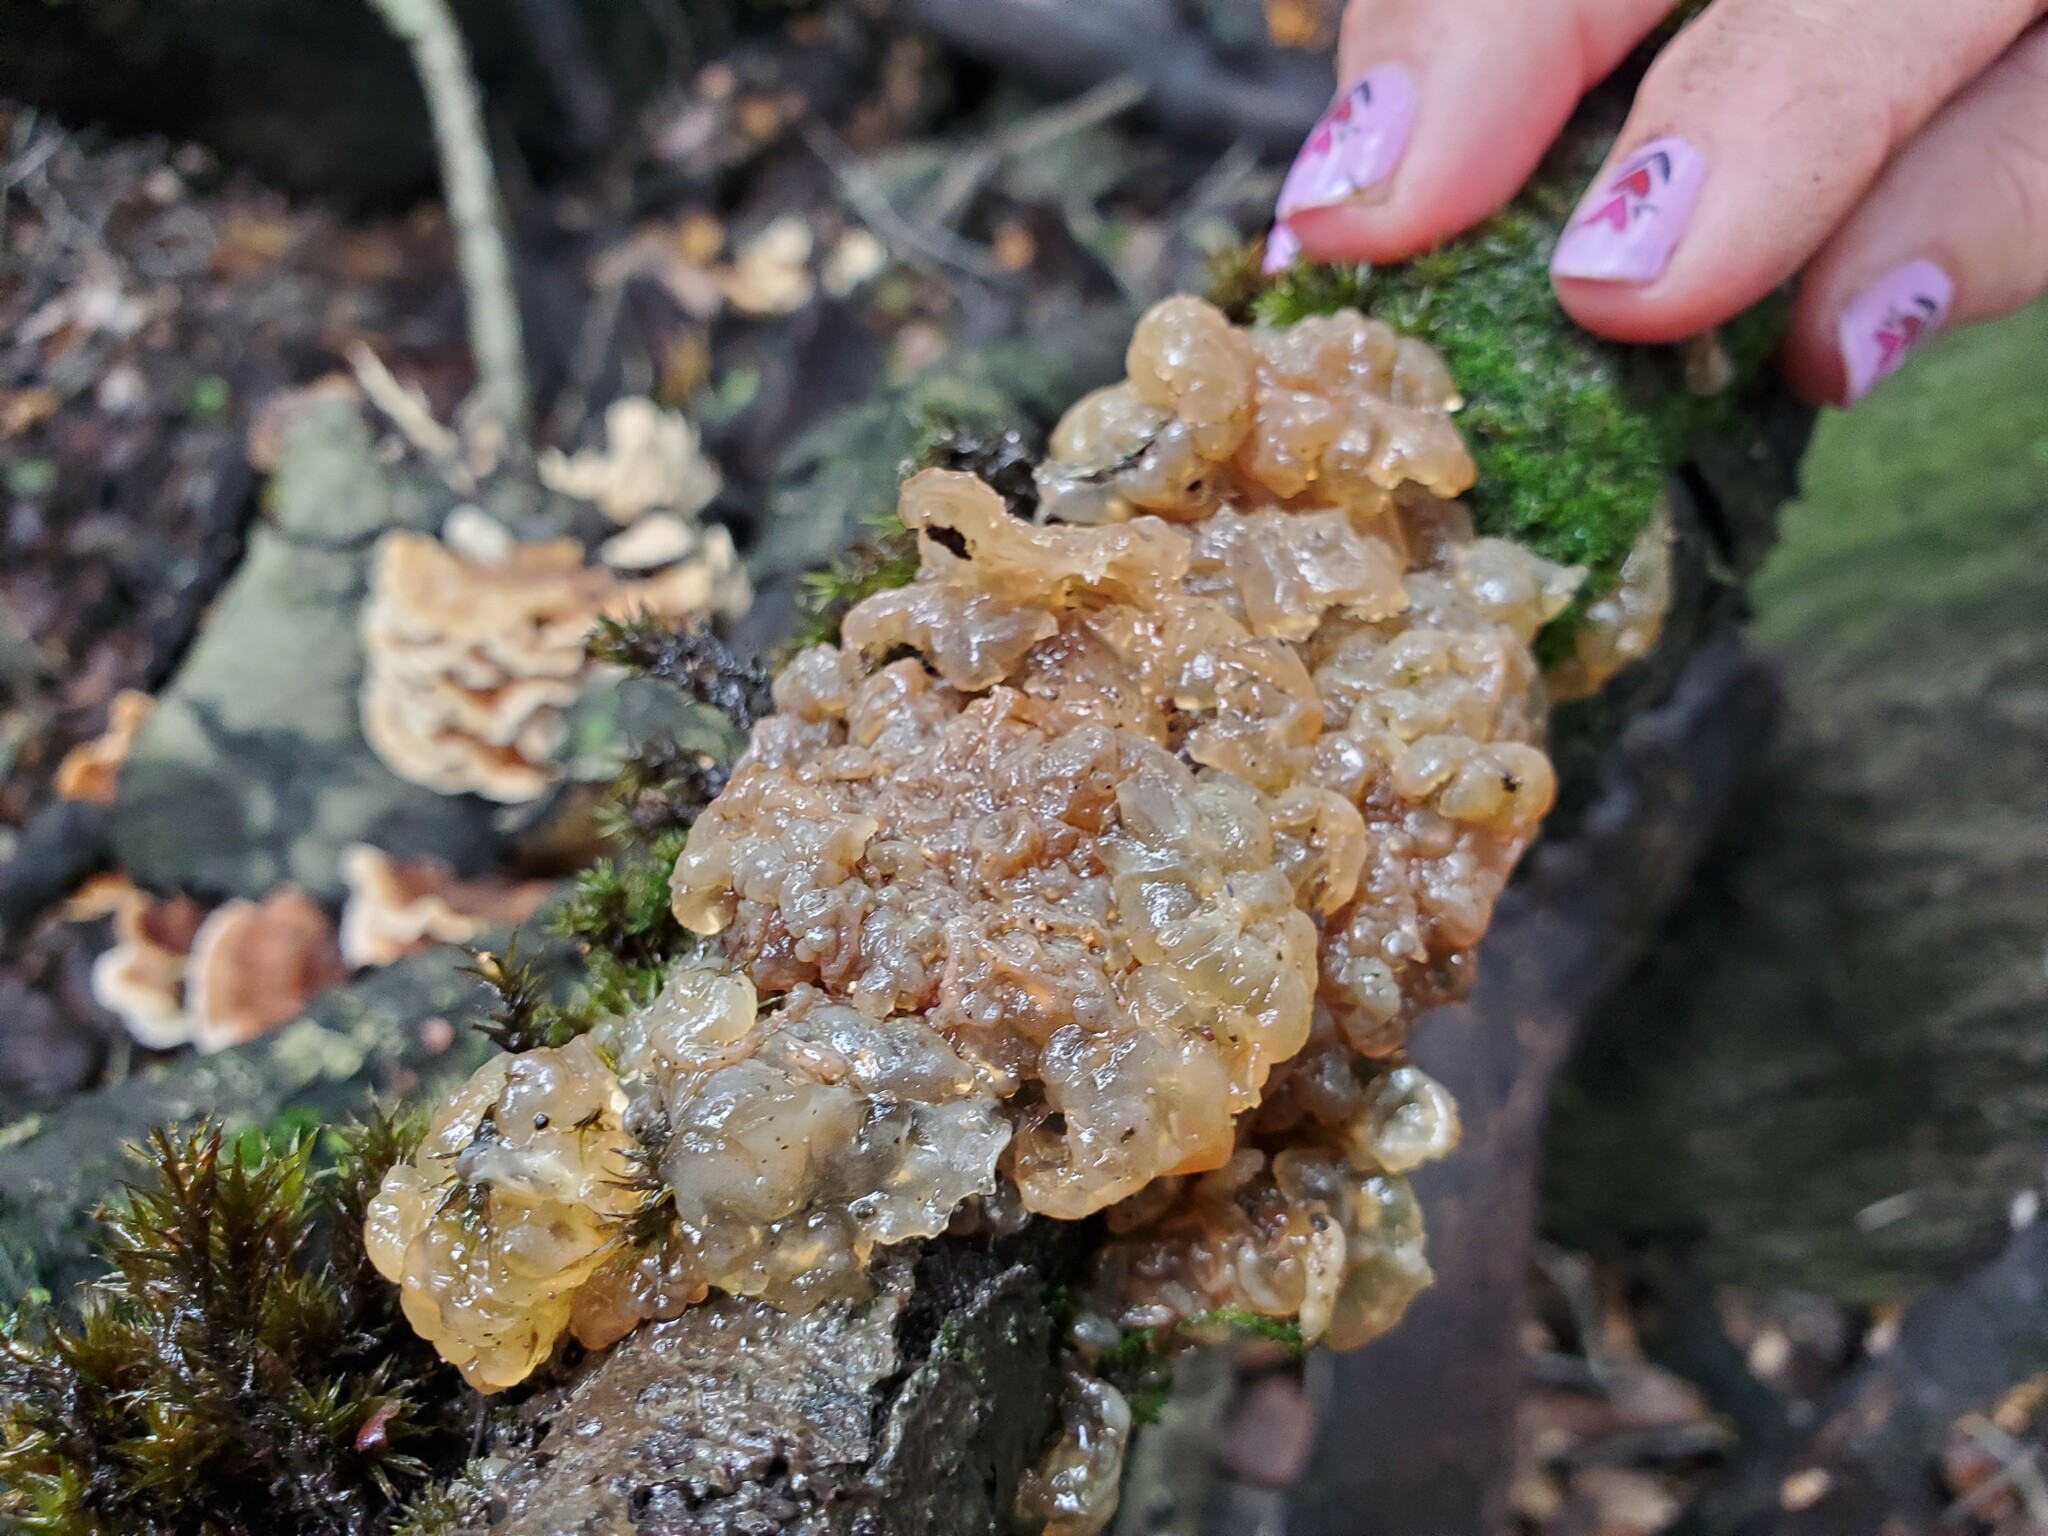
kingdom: Fungi
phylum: Basidiomycota
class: Agaricomycetes
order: Auriculariales
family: Hyaloriaceae
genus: Myxarium
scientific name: Myxarium nucleatum
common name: Crystal brain fungus
